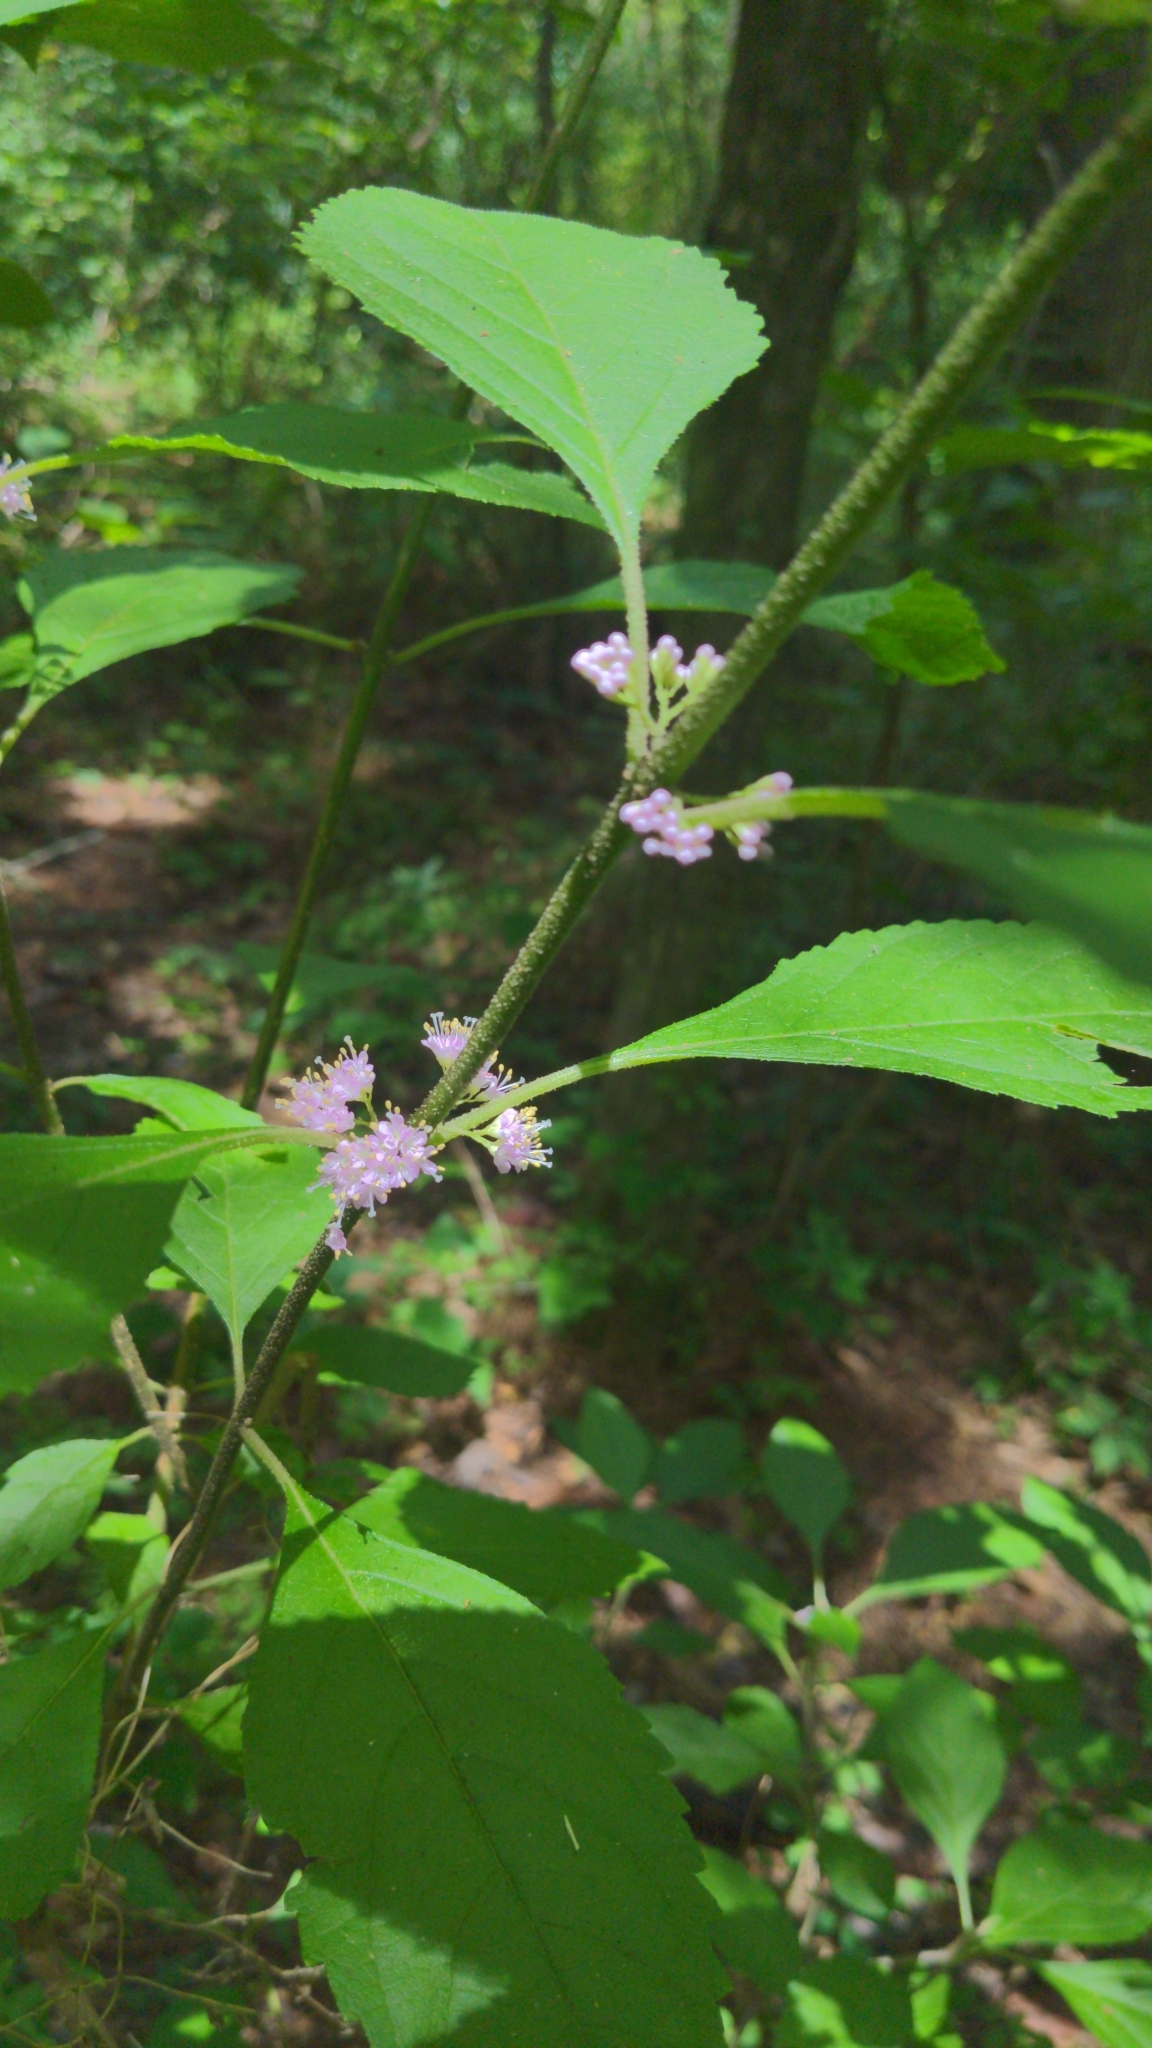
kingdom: Plantae
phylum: Tracheophyta
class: Magnoliopsida
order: Lamiales
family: Lamiaceae
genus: Callicarpa
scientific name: Callicarpa americana
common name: American beautyberry
